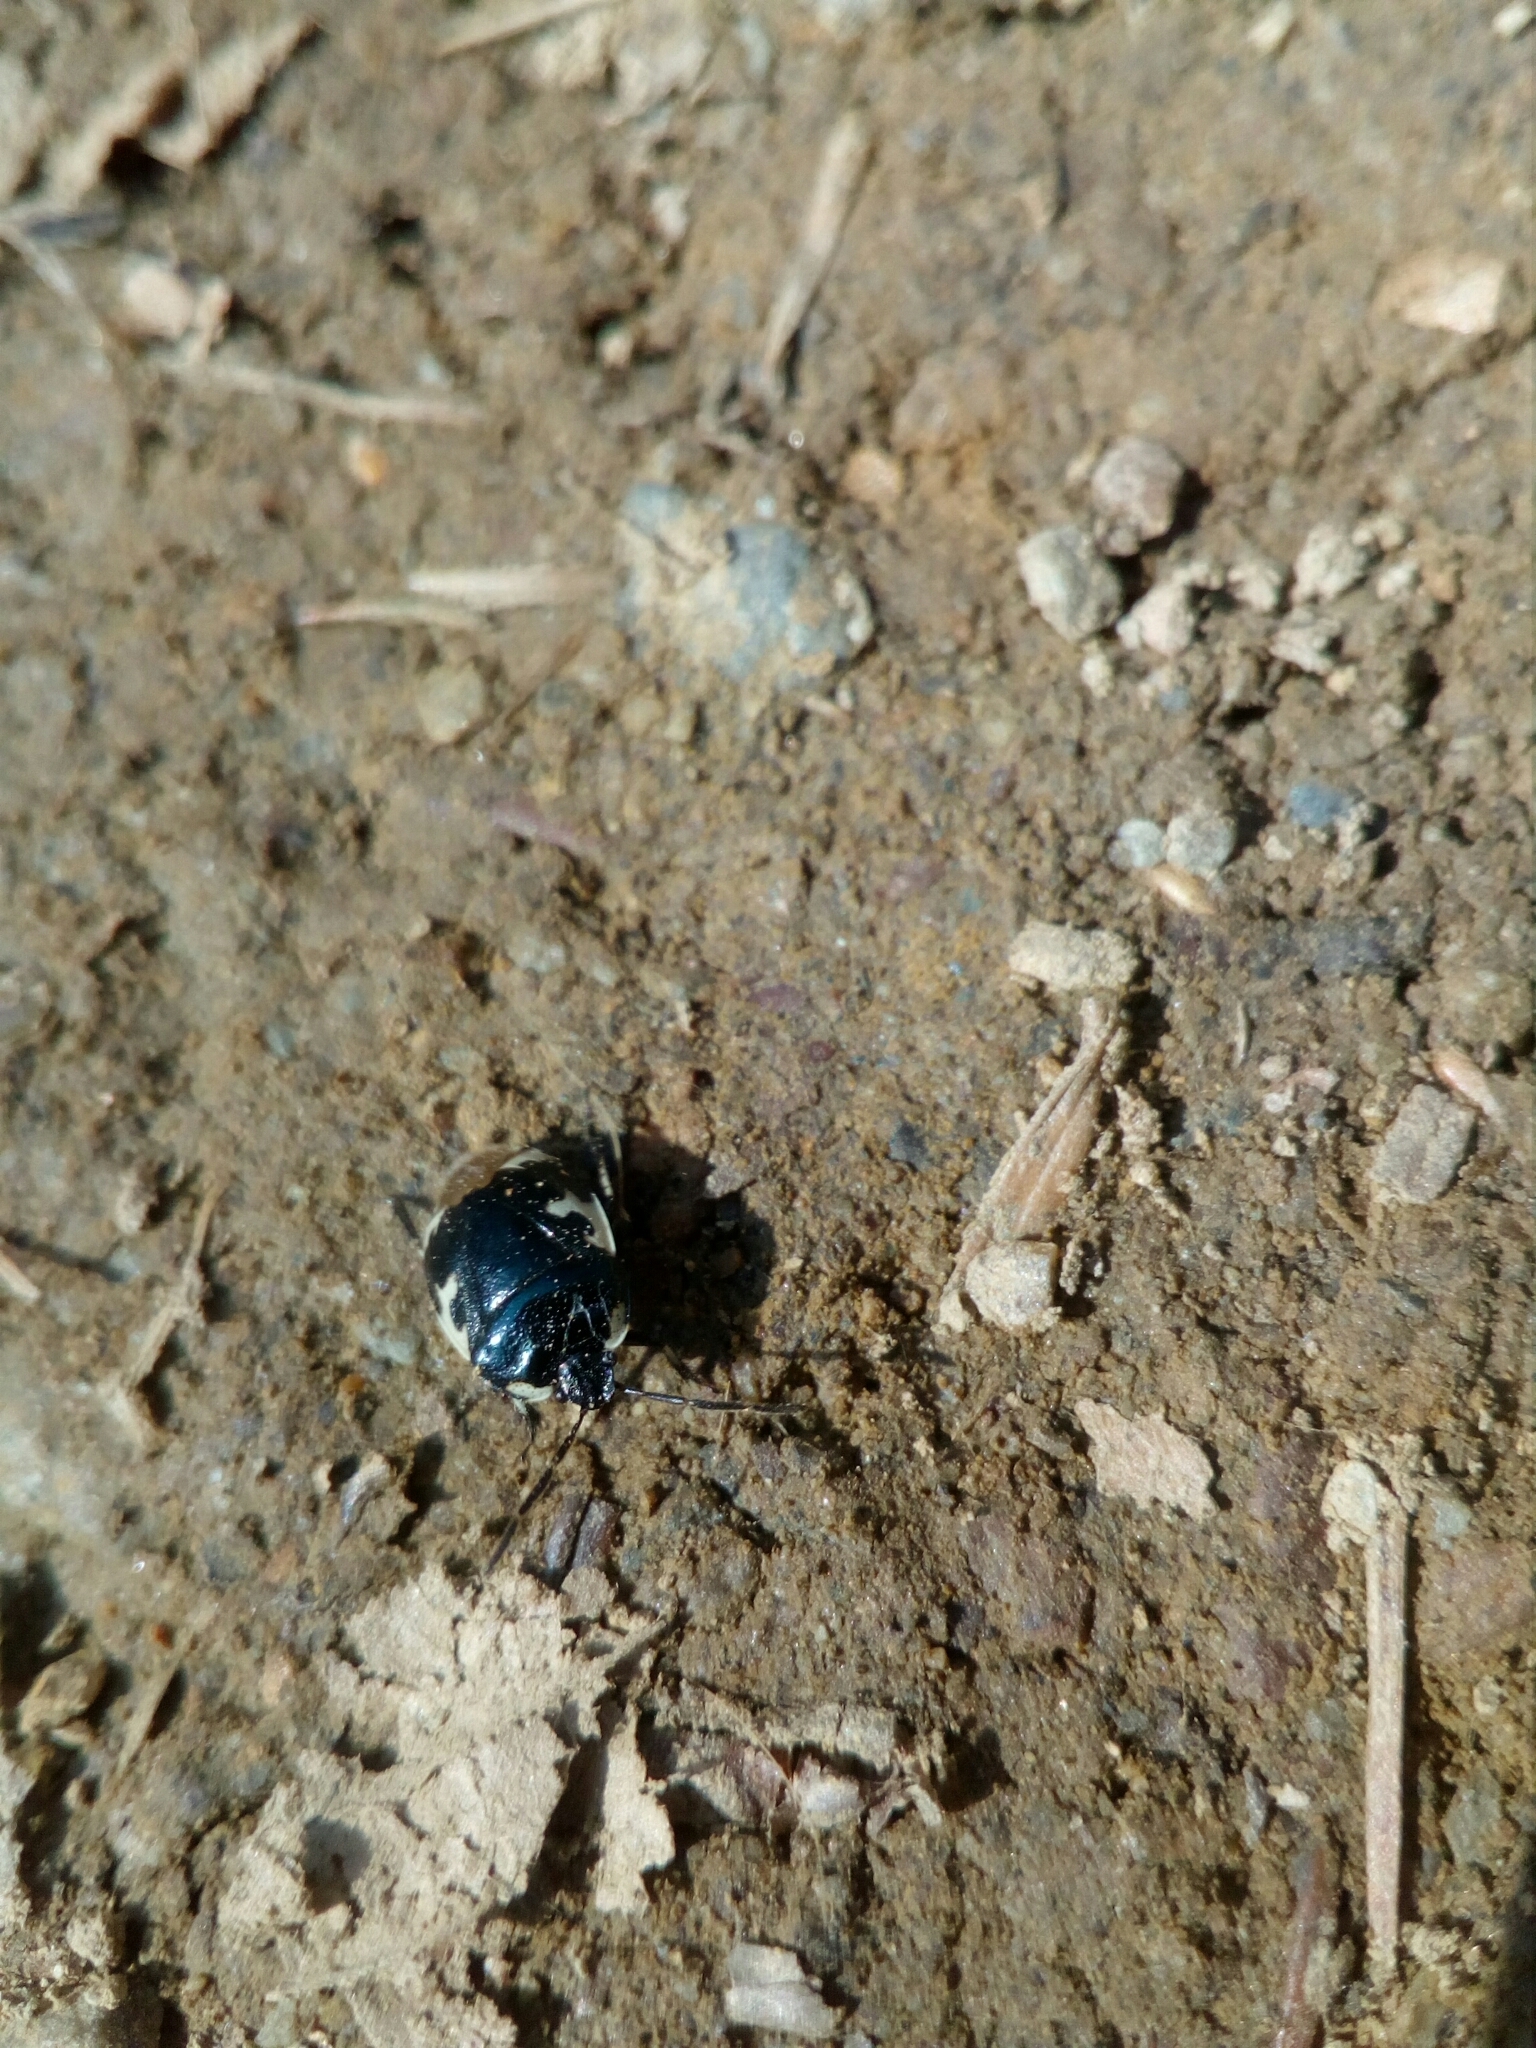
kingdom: Animalia
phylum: Arthropoda
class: Insecta
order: Hemiptera
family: Cydnidae
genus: Tritomegas
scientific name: Tritomegas bicolor
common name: Pied shieldbug
